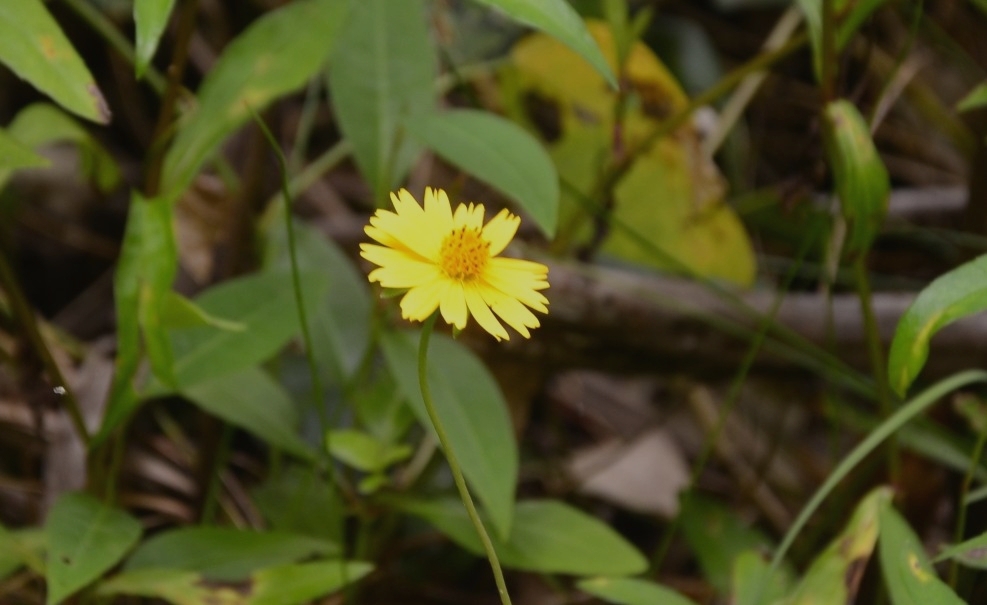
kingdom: Plantae
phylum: Tracheophyta
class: Magnoliopsida
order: Asterales
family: Asteraceae
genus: Sphagneticola
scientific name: Sphagneticola trilobata
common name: Bay biscayne creeping-oxeye
